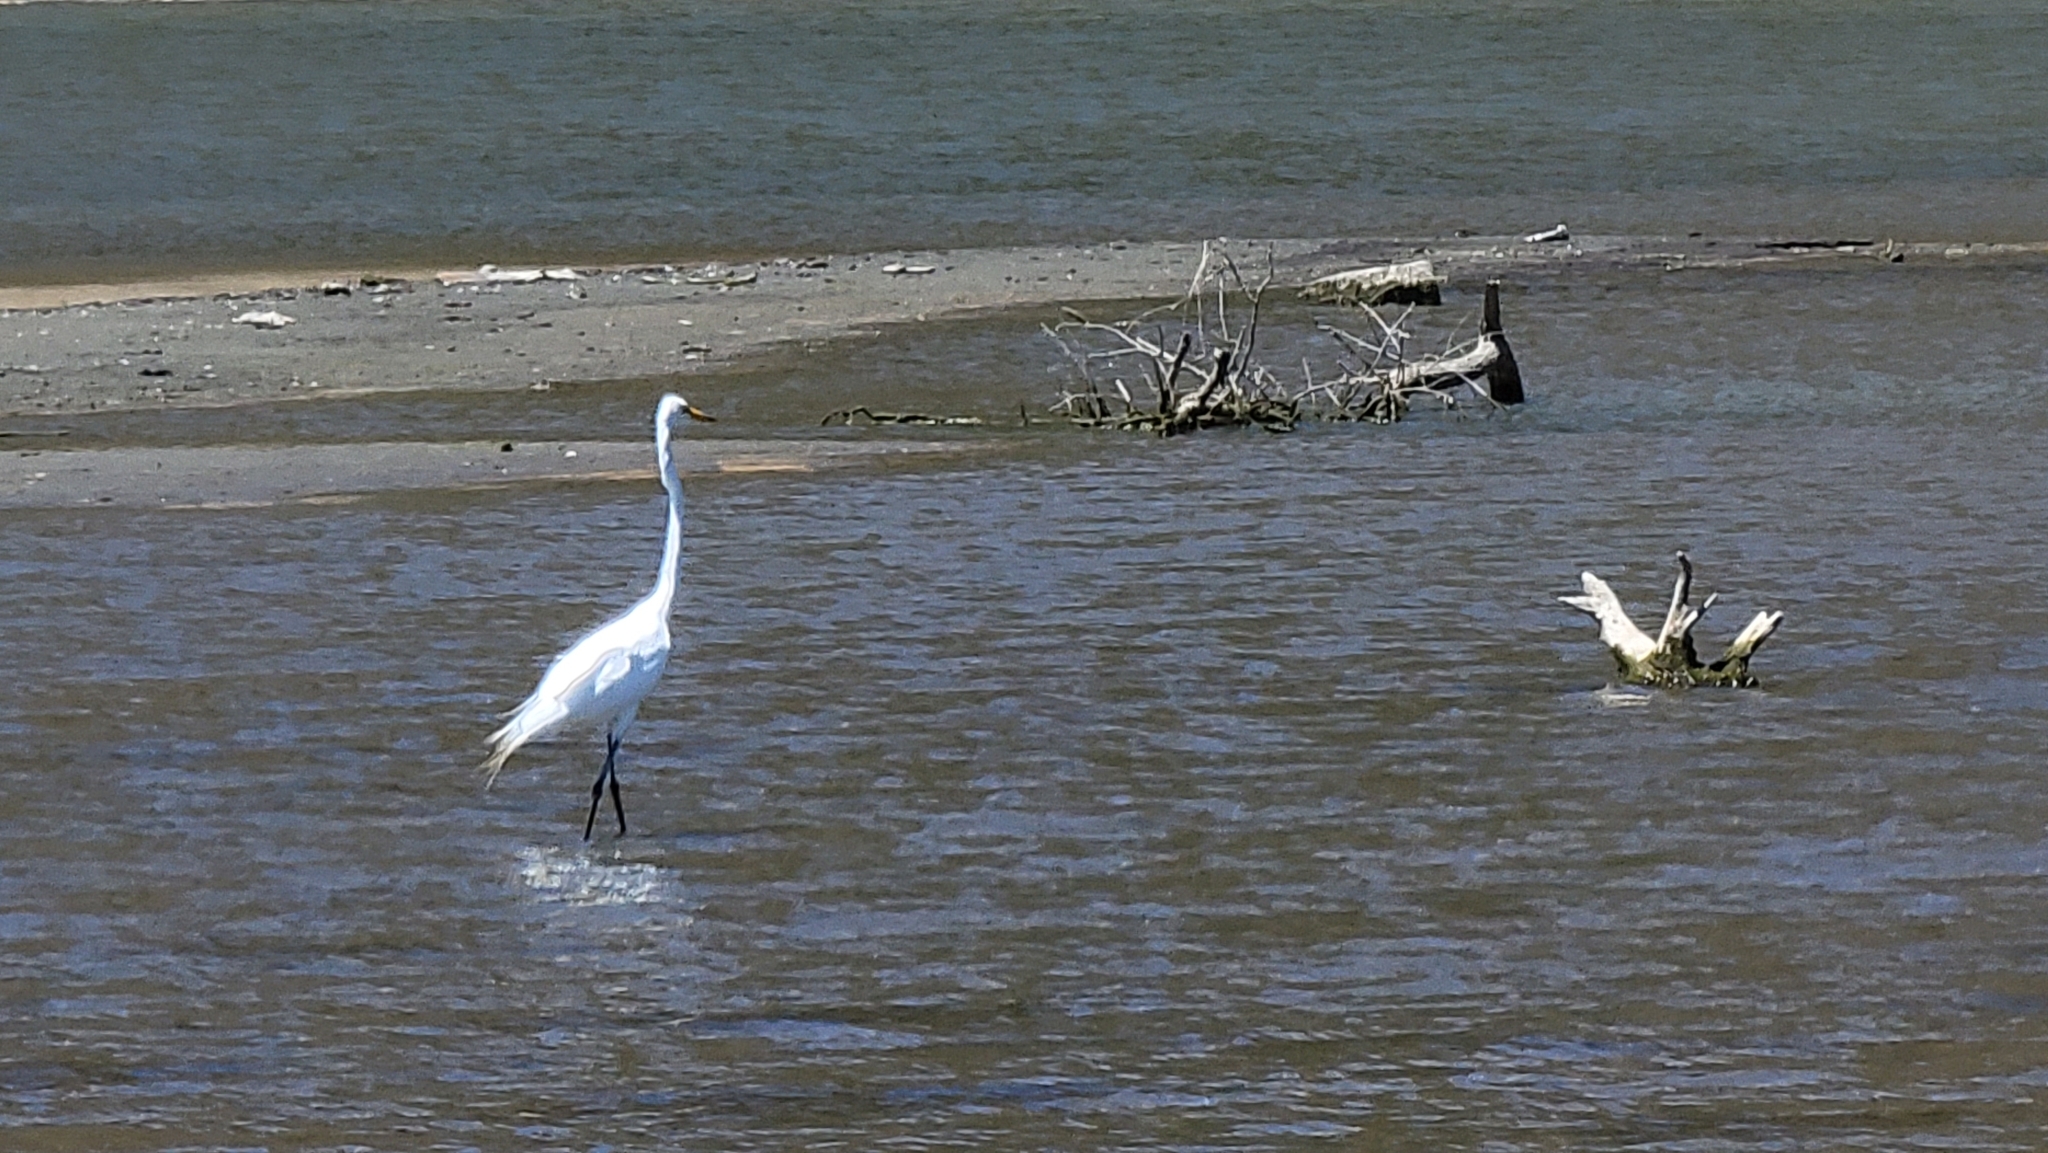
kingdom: Animalia
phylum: Chordata
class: Aves
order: Pelecaniformes
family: Ardeidae
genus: Ardea
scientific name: Ardea alba
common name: Great egret
